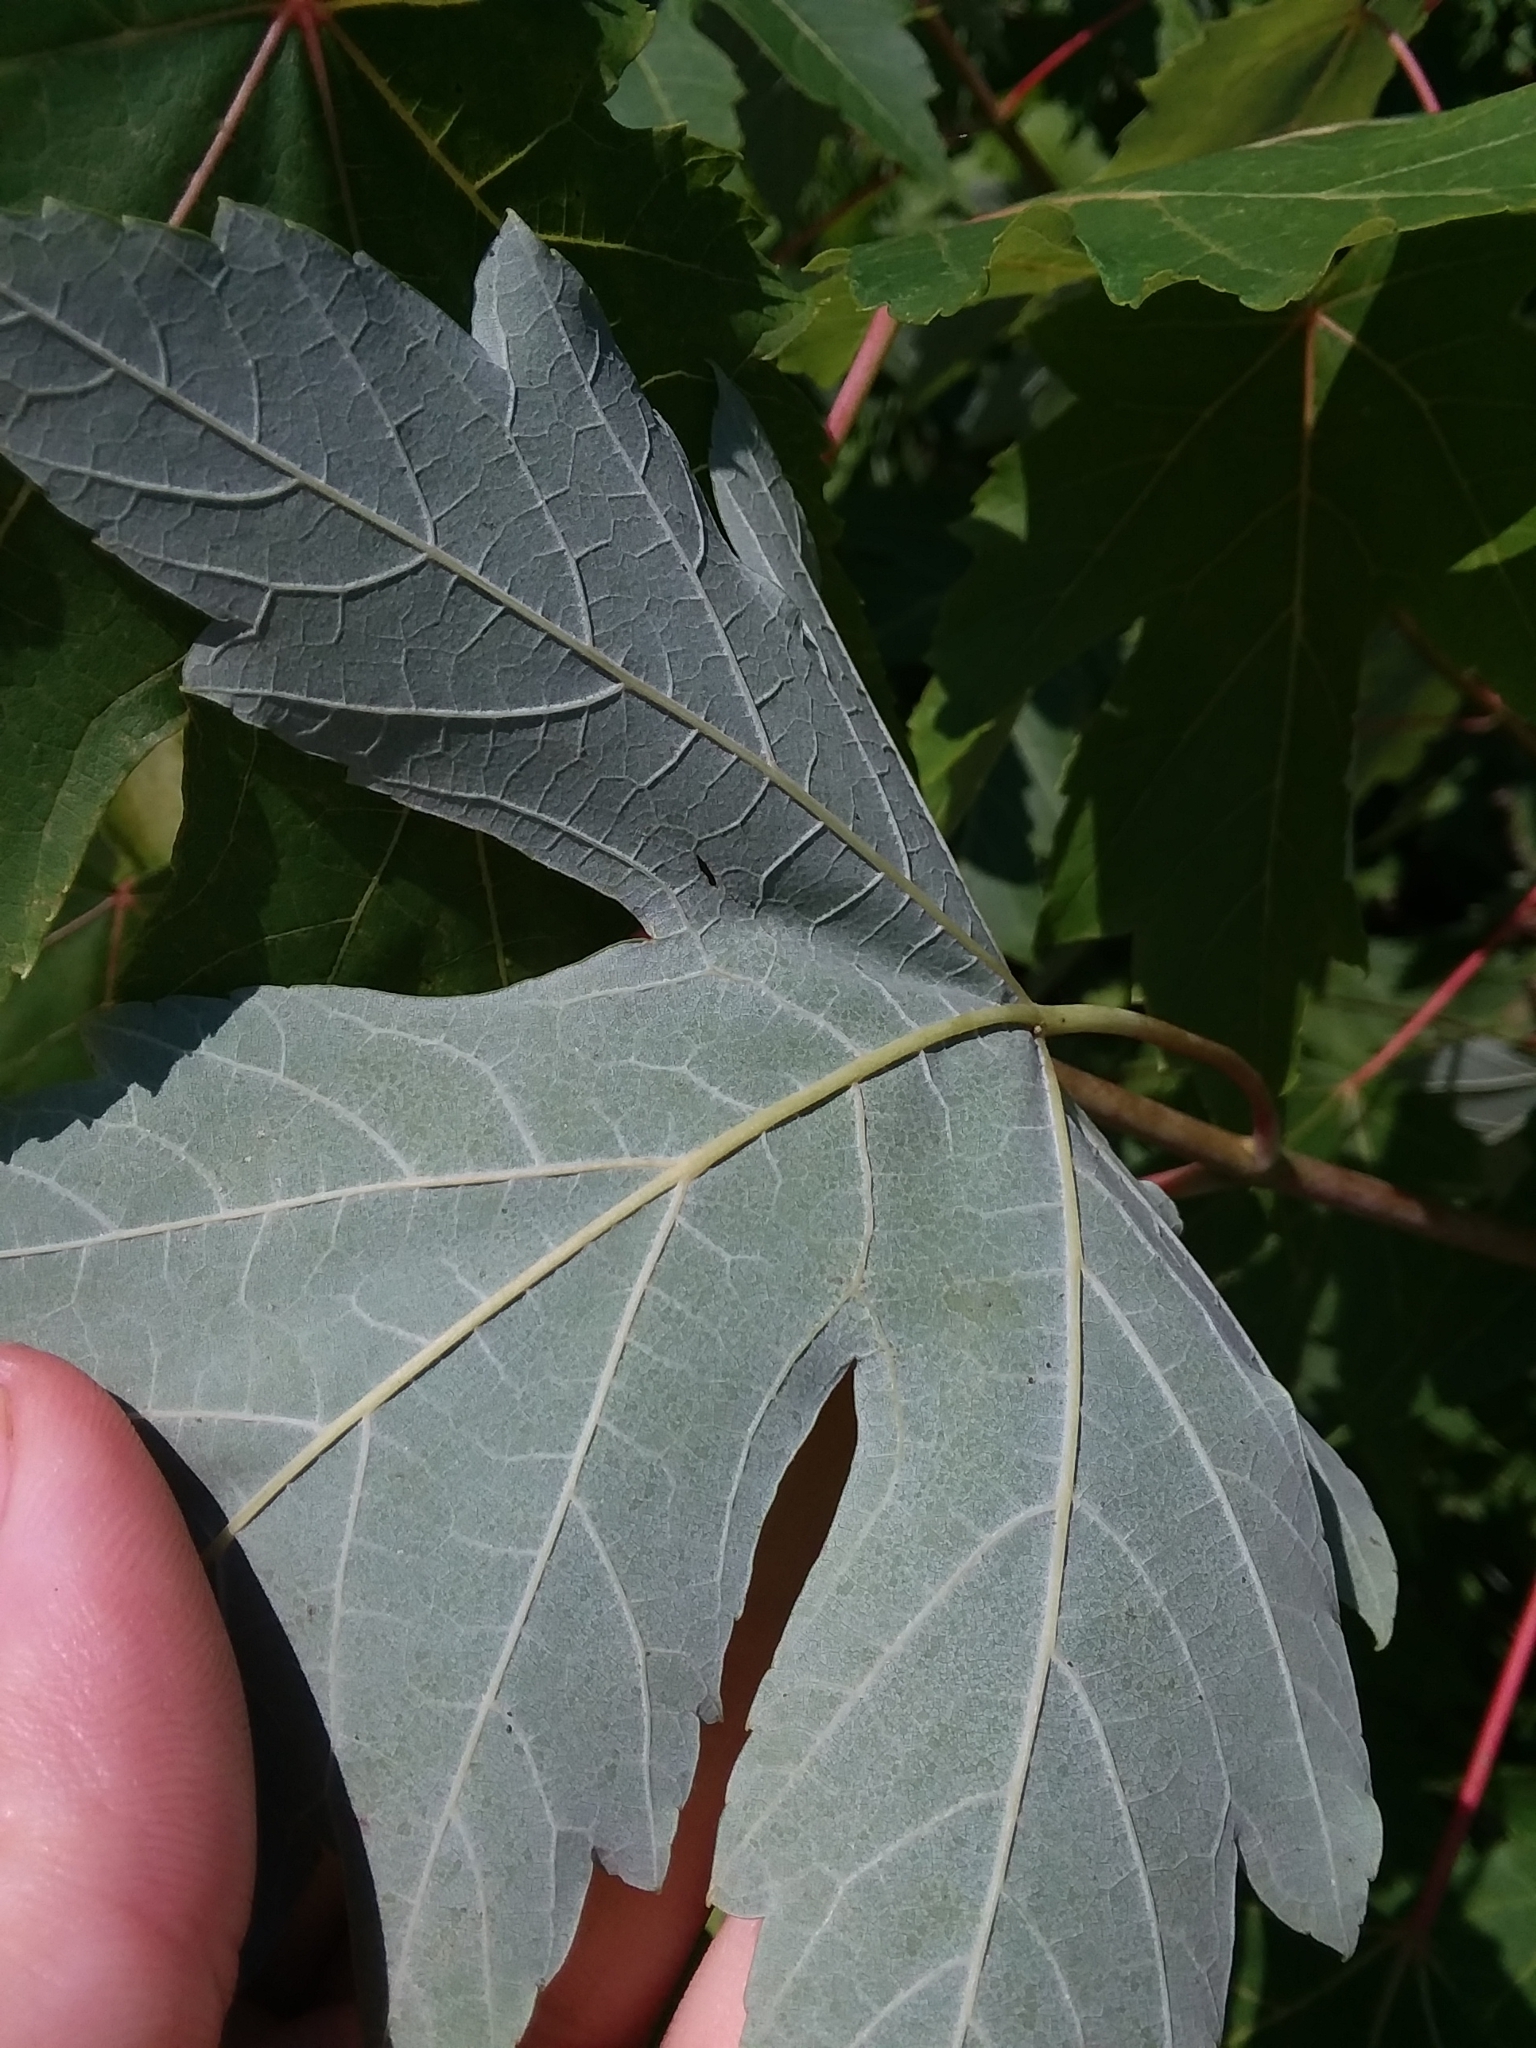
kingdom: Plantae
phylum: Tracheophyta
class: Magnoliopsida
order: Sapindales
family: Sapindaceae
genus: Acer
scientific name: Acer saccharinum
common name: Silver maple
